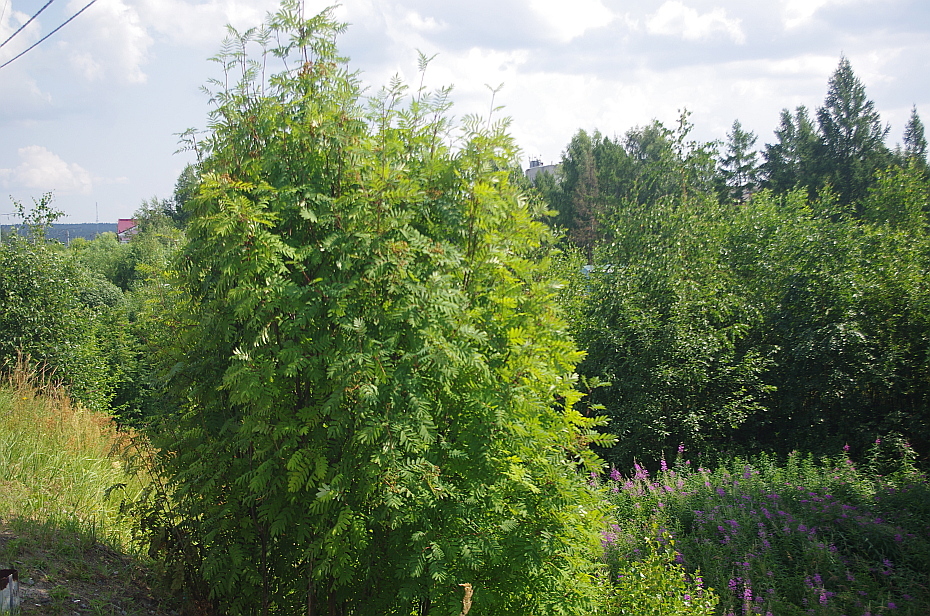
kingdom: Plantae
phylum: Tracheophyta
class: Magnoliopsida
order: Rosales
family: Rosaceae
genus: Sorbus
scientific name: Sorbus aucuparia
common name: Rowan
